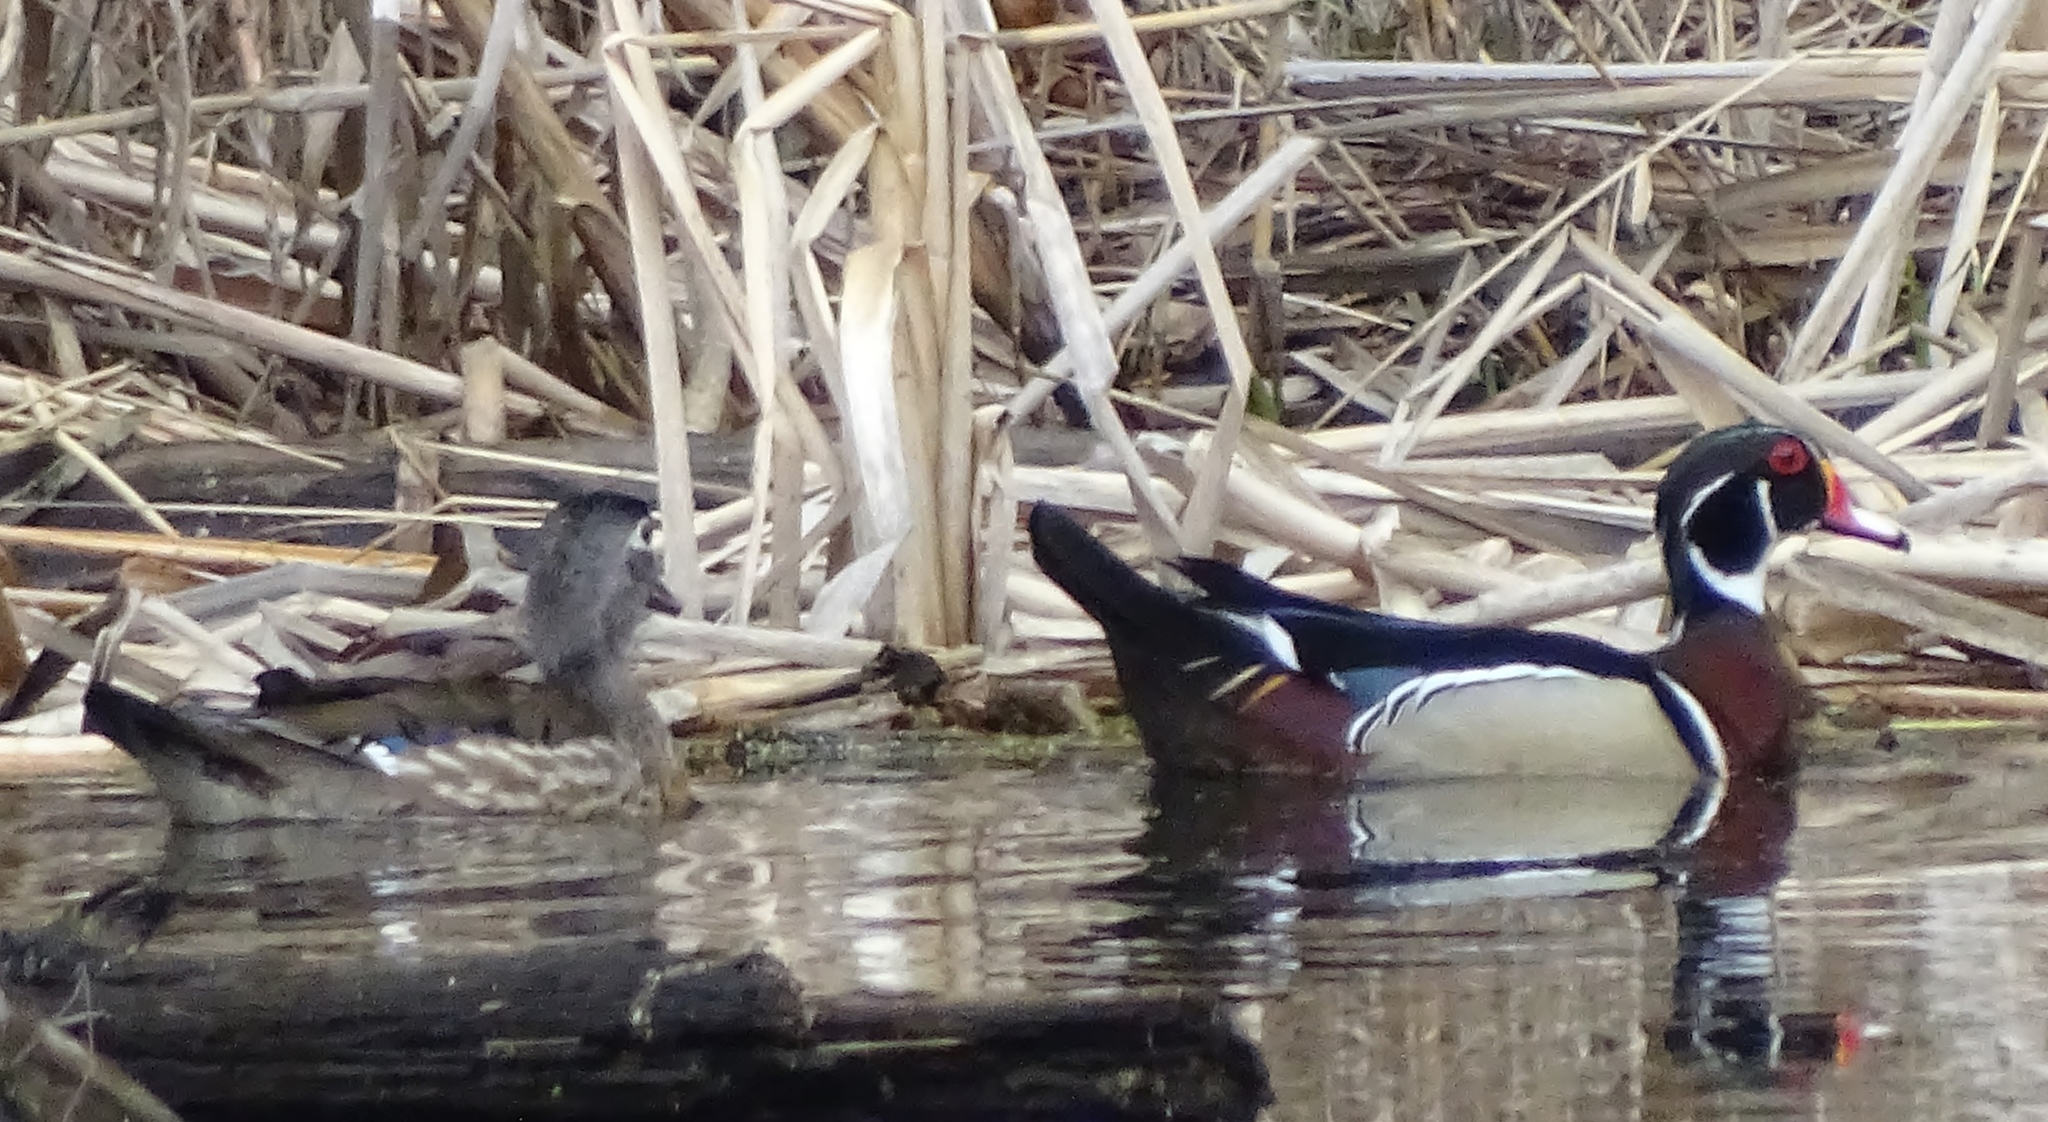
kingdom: Animalia
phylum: Chordata
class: Aves
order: Anseriformes
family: Anatidae
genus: Aix
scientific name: Aix sponsa
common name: Wood duck
